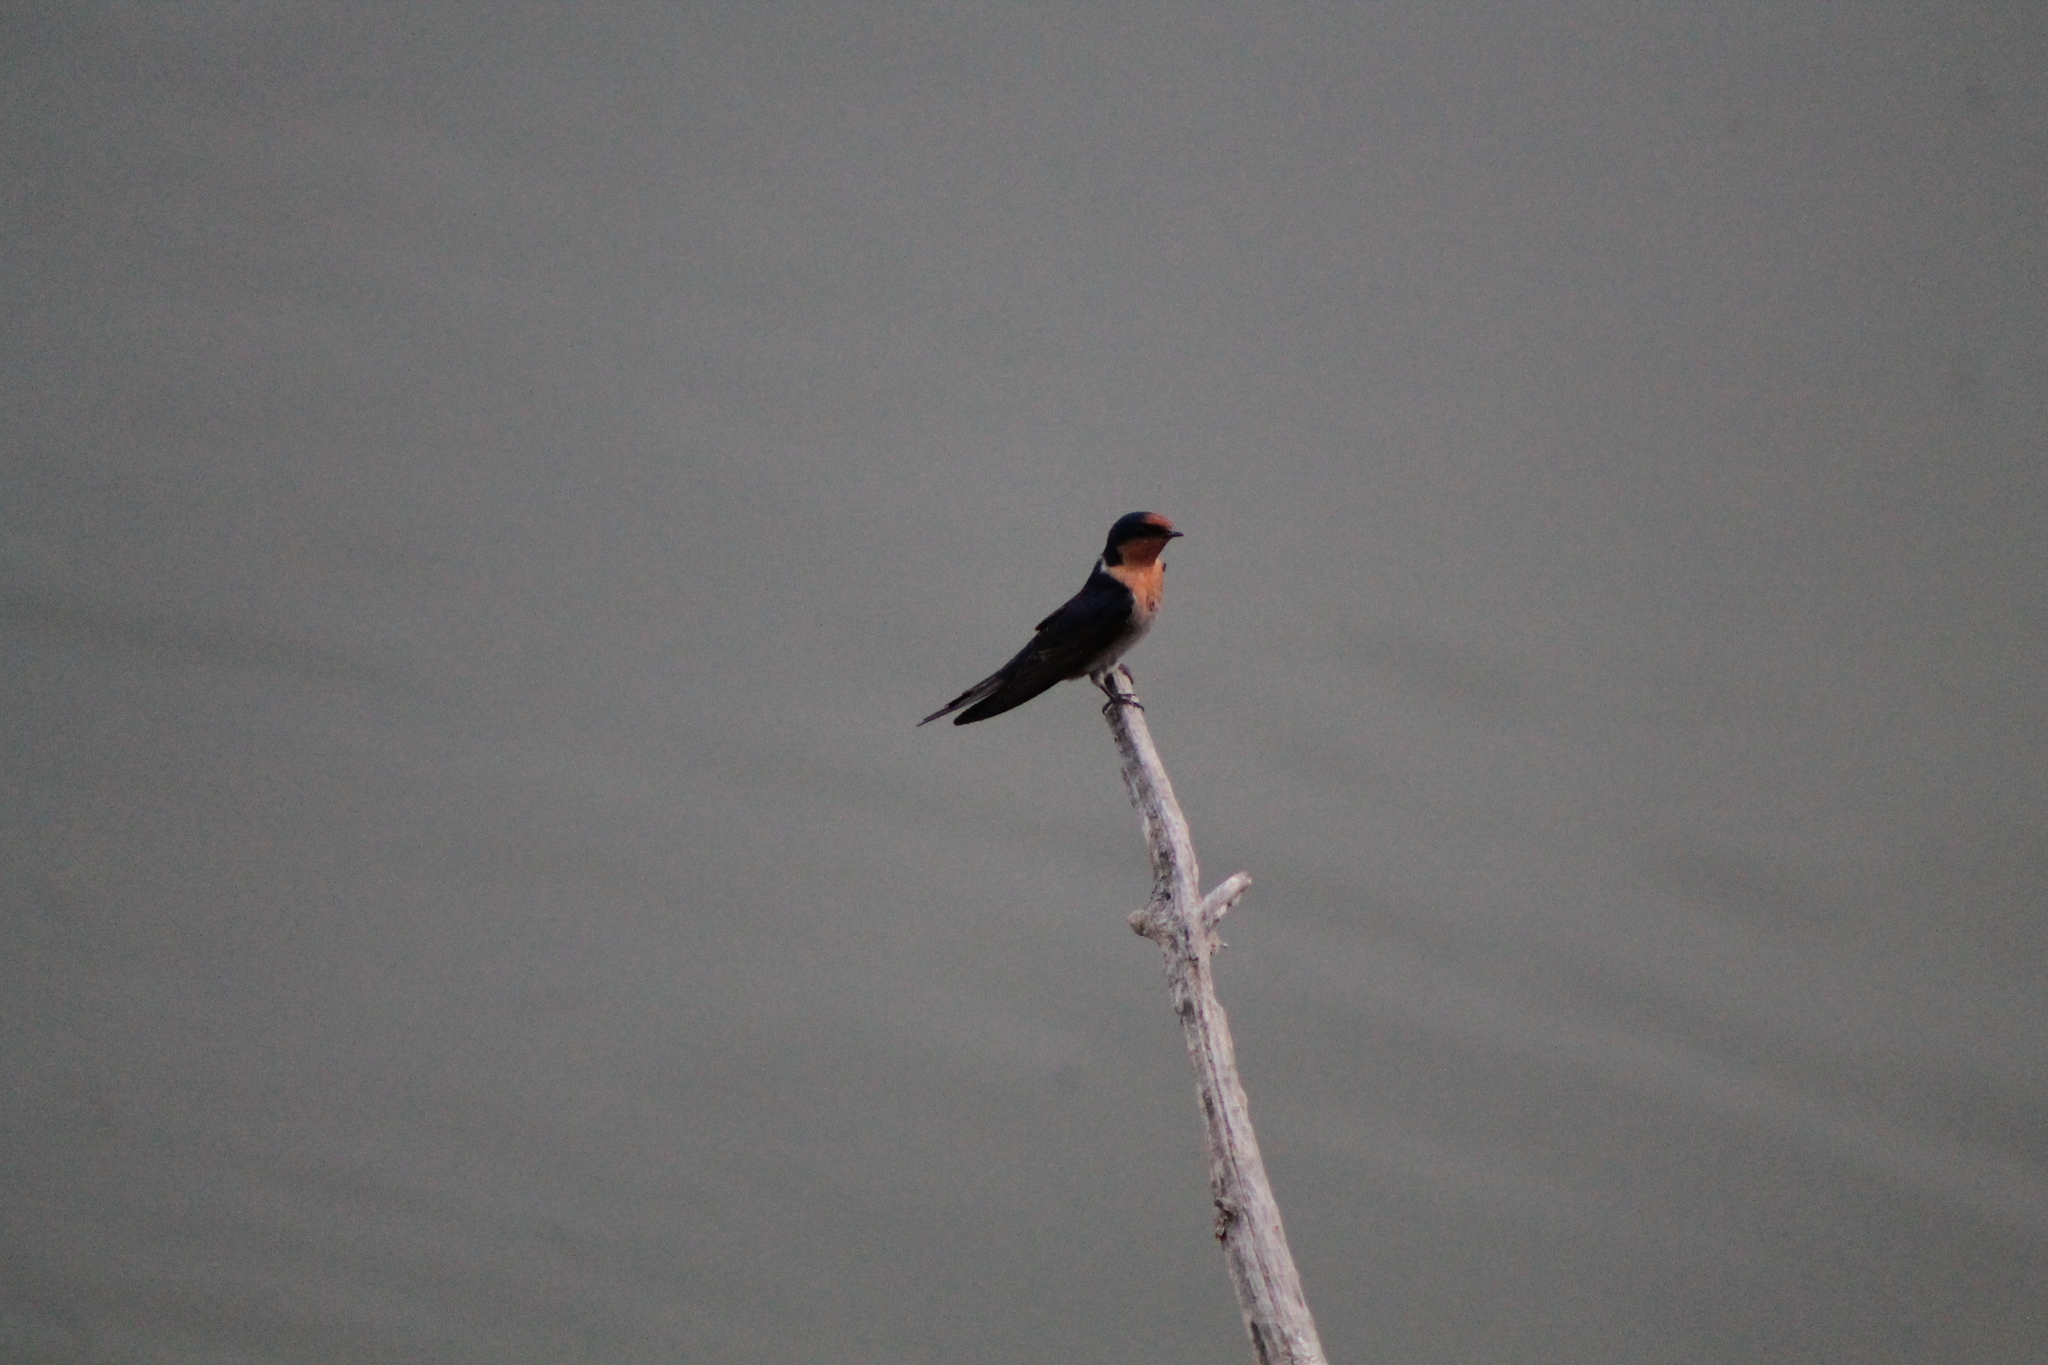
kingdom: Animalia
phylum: Chordata
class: Aves
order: Passeriformes
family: Hirundinidae
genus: Hirundo
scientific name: Hirundo neoxena
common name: Welcome swallow
